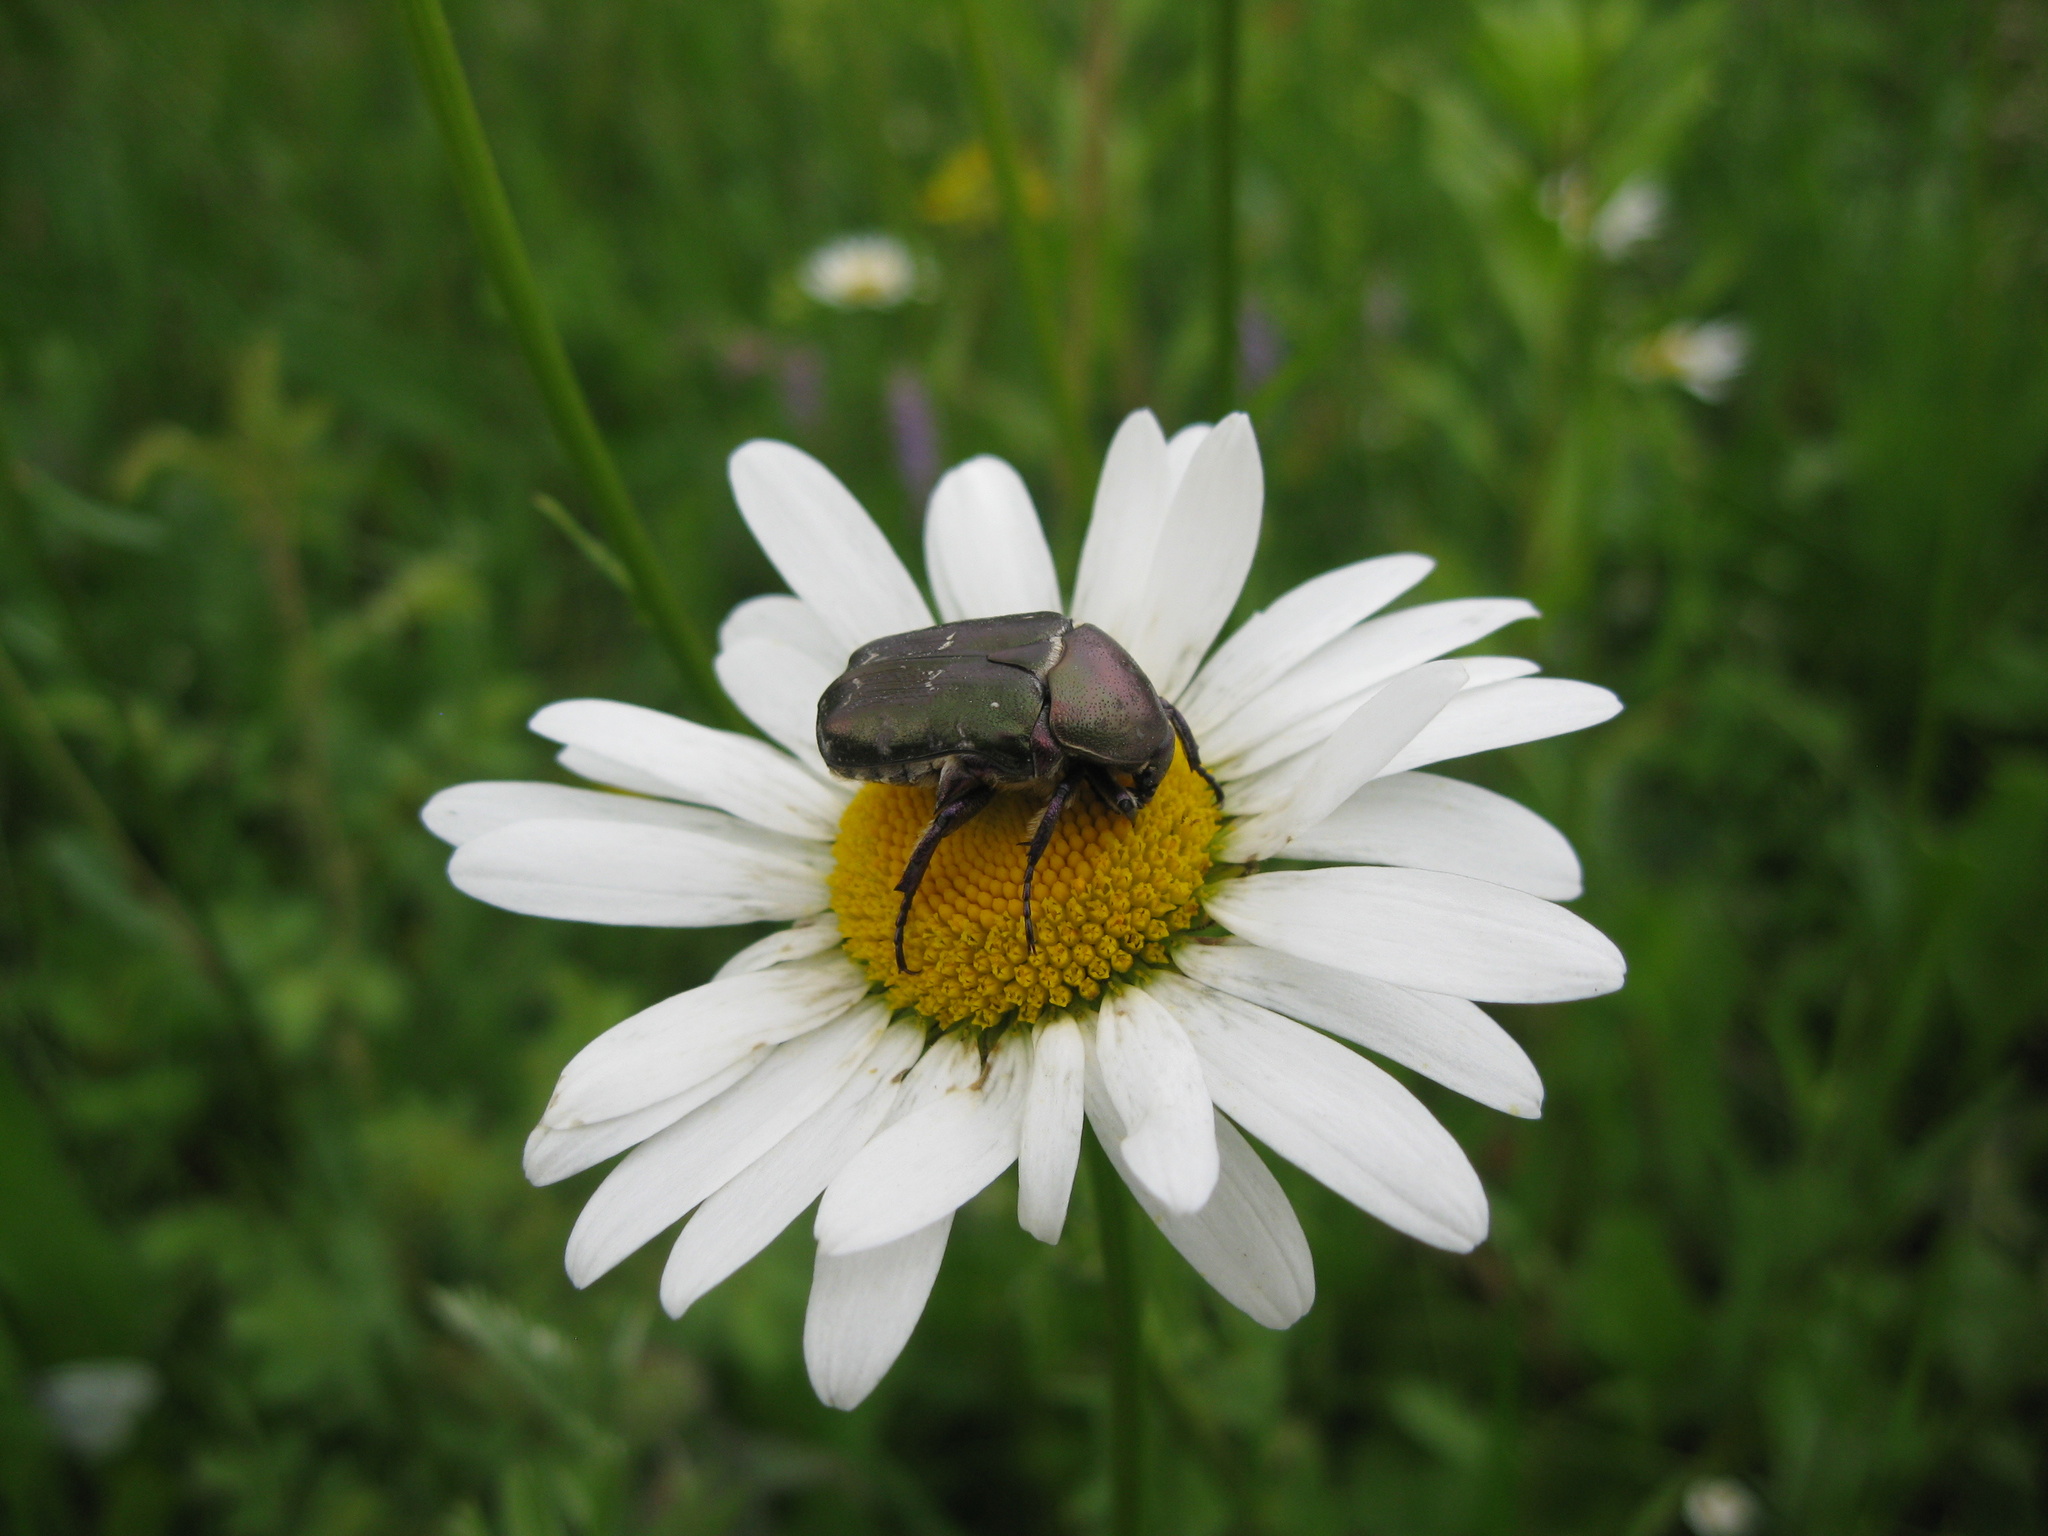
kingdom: Animalia
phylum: Arthropoda
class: Insecta
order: Coleoptera
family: Scarabaeidae
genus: Protaetia
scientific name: Protaetia cuprea
